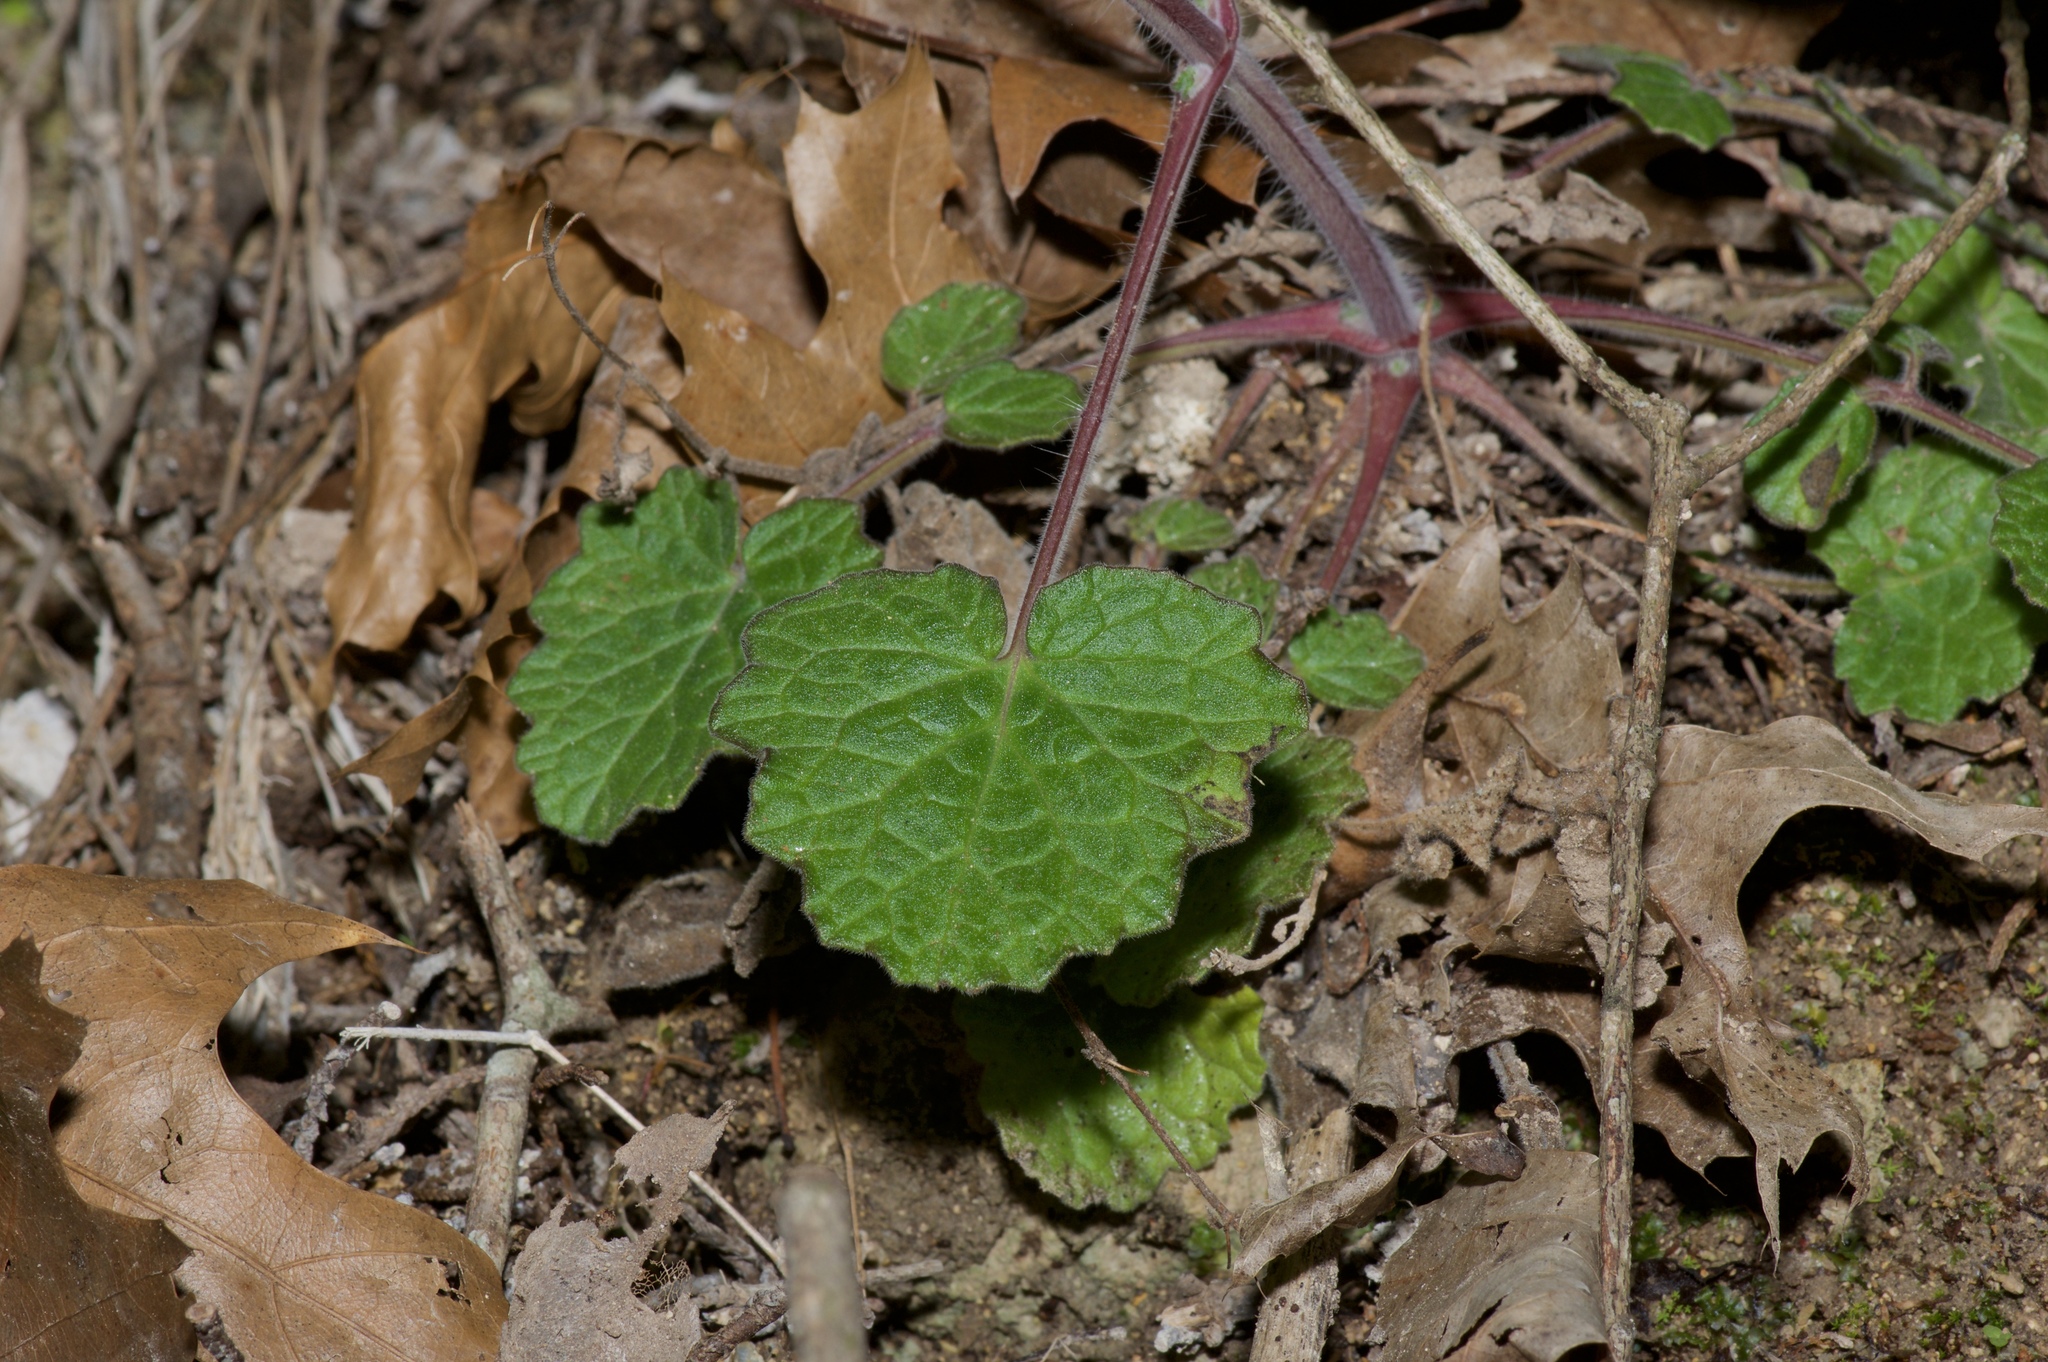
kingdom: Plantae
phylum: Tracheophyta
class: Magnoliopsida
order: Lamiales
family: Lamiaceae
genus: Salvia
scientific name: Salvia roemeriana
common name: Cedar sage
